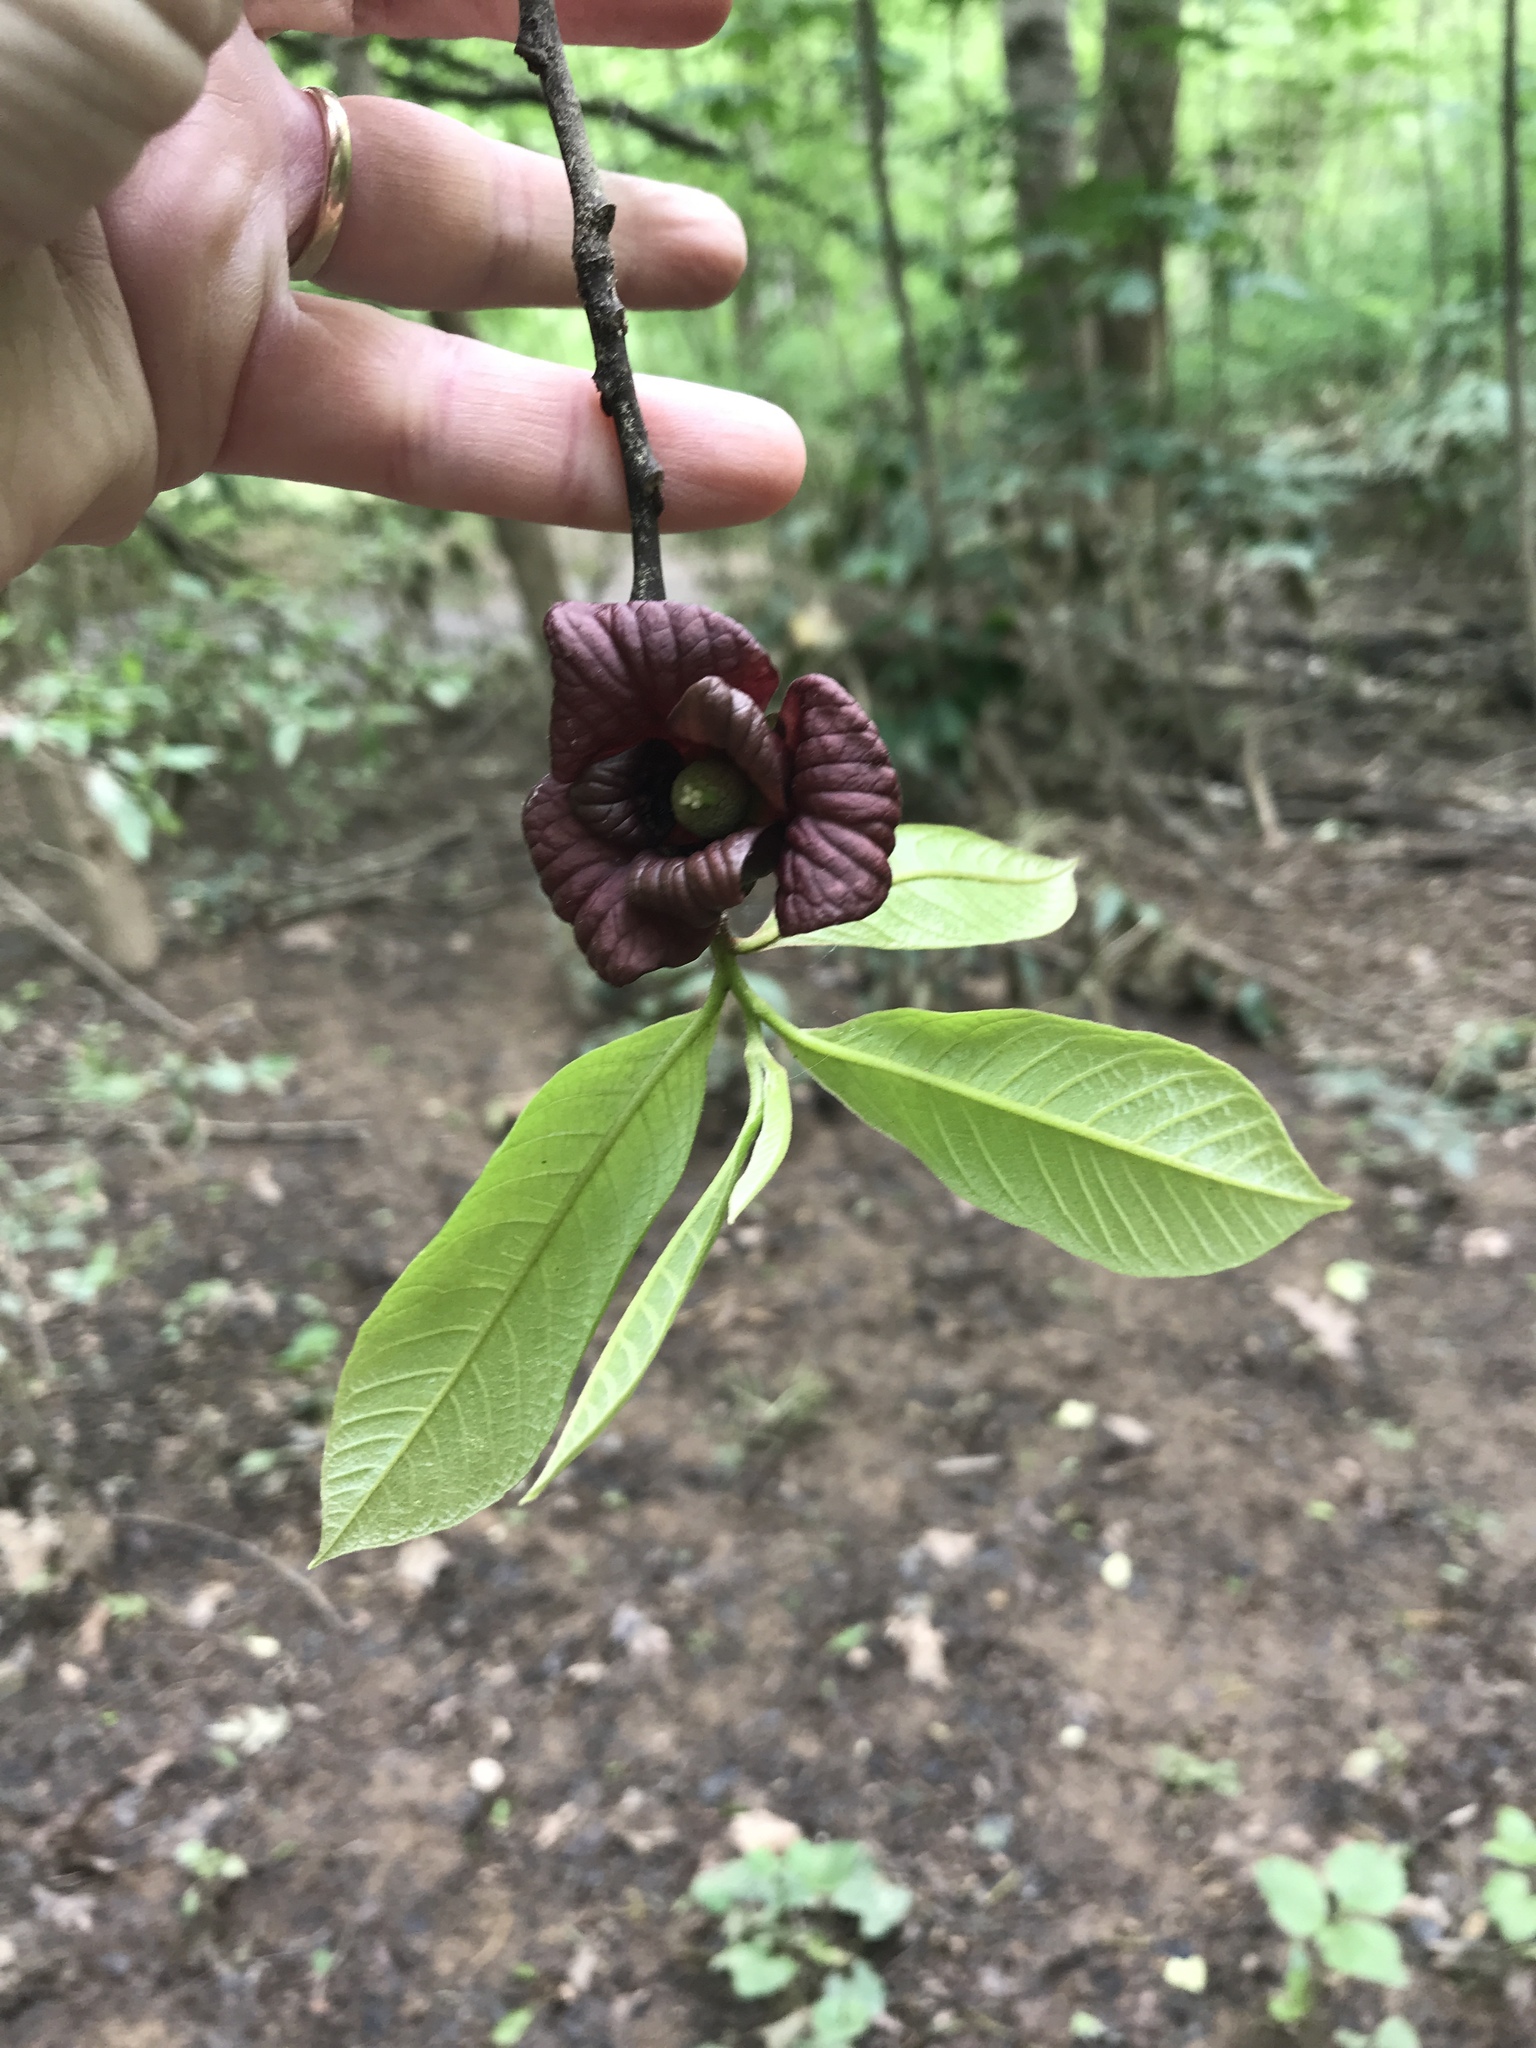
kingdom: Plantae
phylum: Tracheophyta
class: Magnoliopsida
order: Magnoliales
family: Annonaceae
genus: Asimina
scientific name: Asimina triloba
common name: Dog-banana
